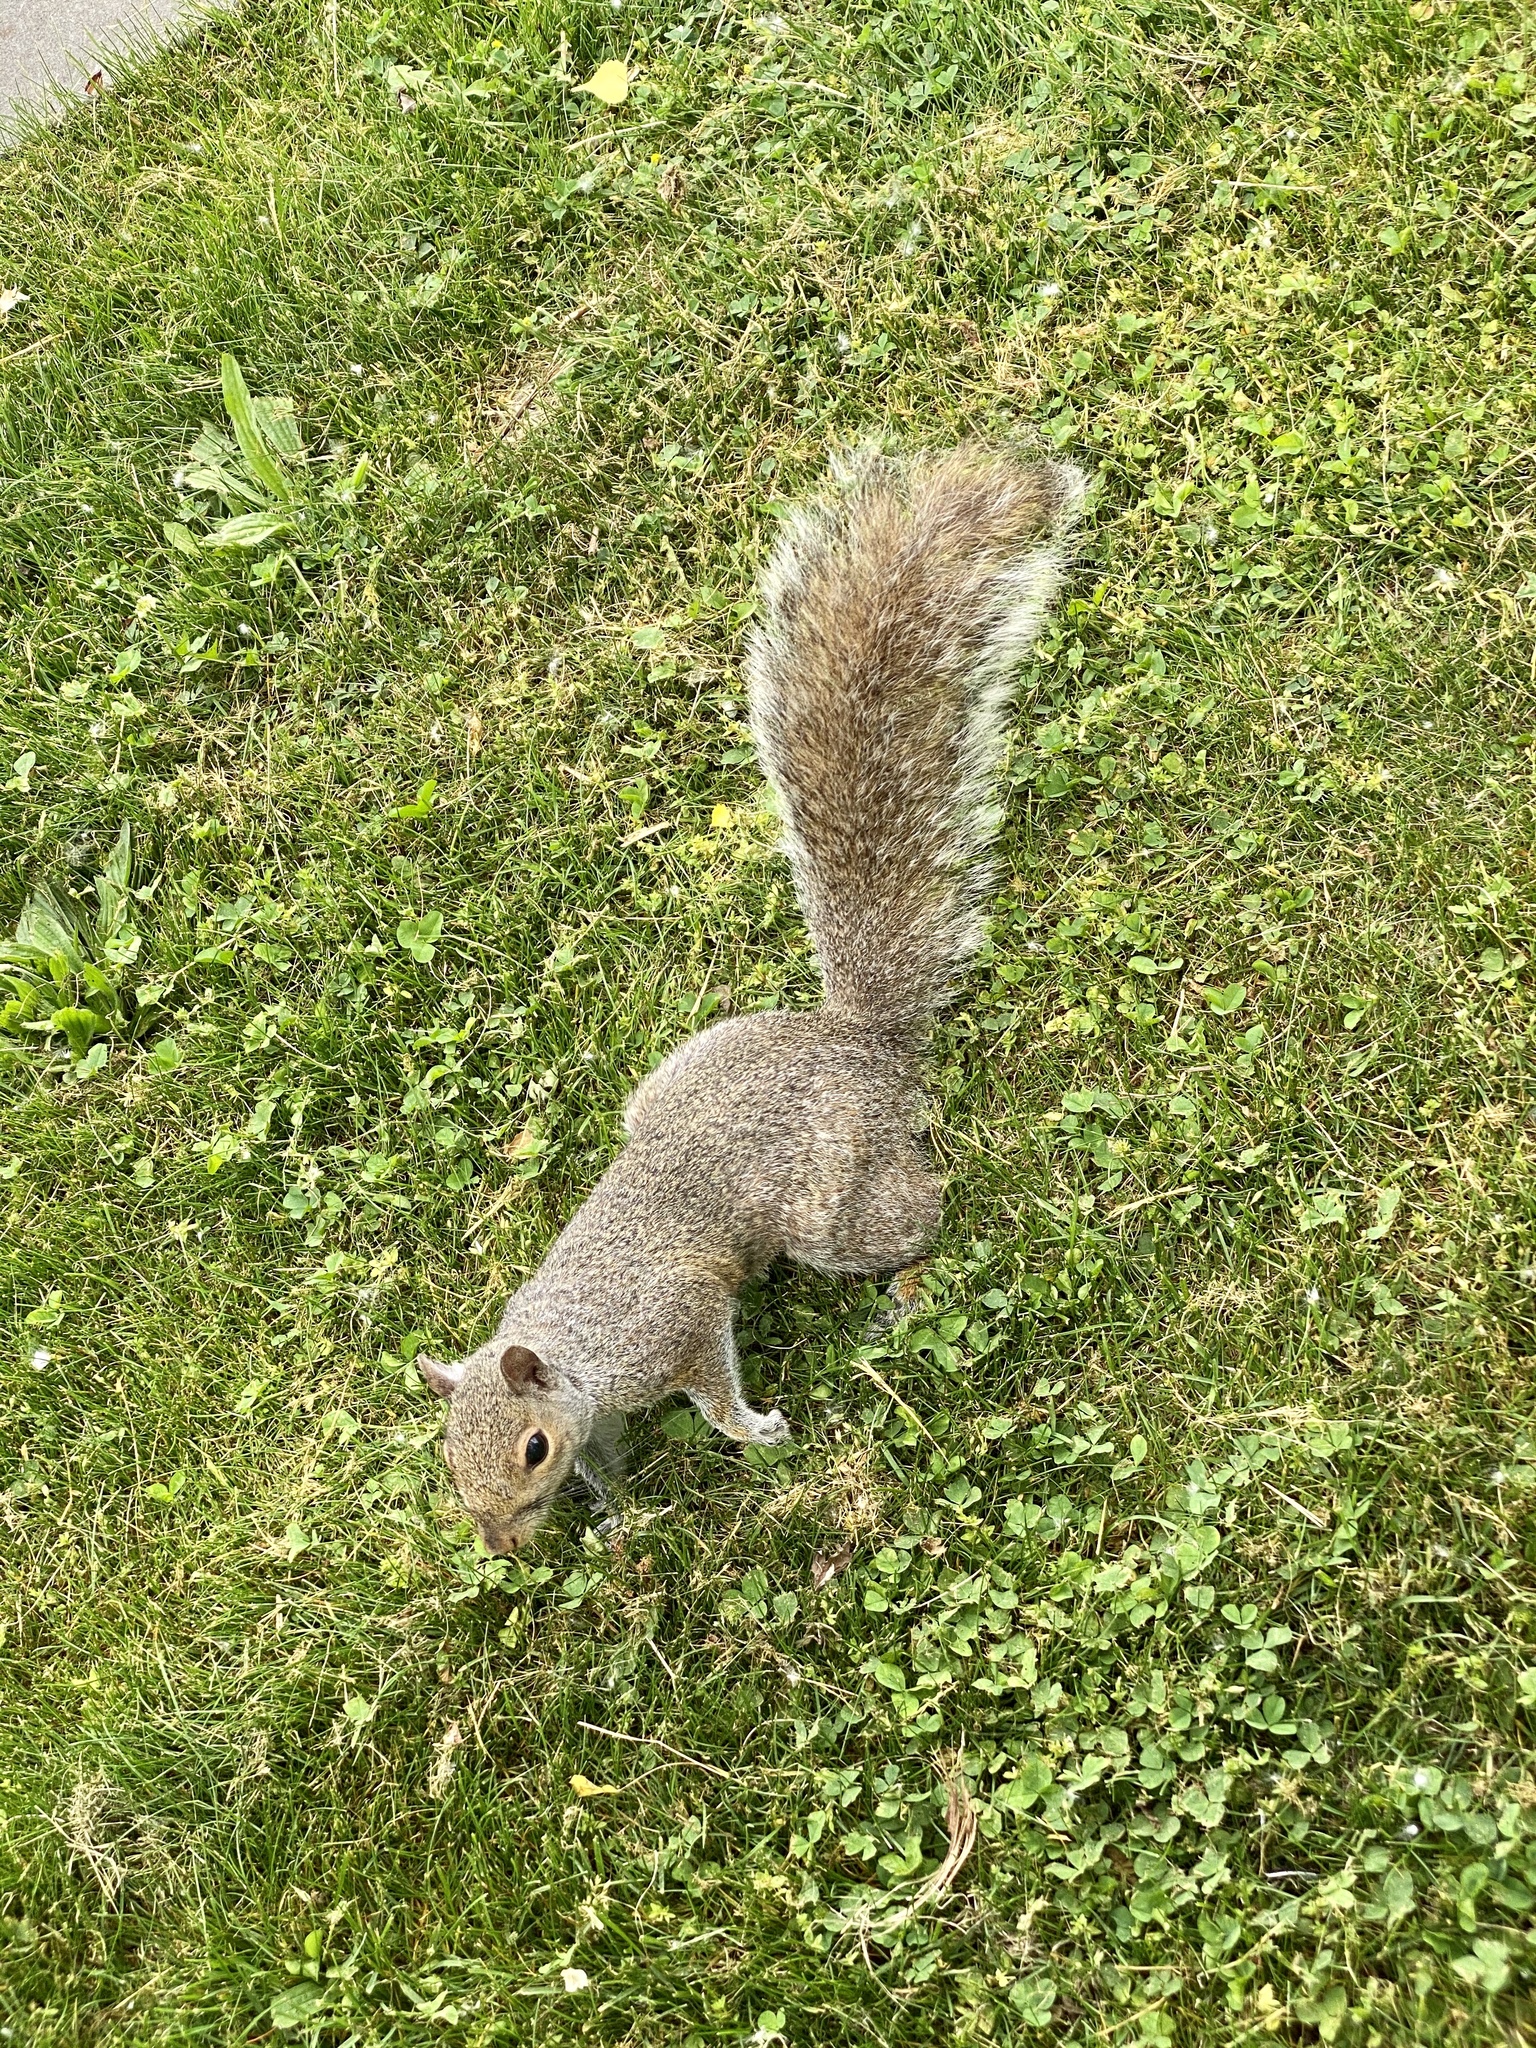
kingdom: Animalia
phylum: Chordata
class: Mammalia
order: Rodentia
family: Sciuridae
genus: Sciurus
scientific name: Sciurus carolinensis
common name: Eastern gray squirrel
